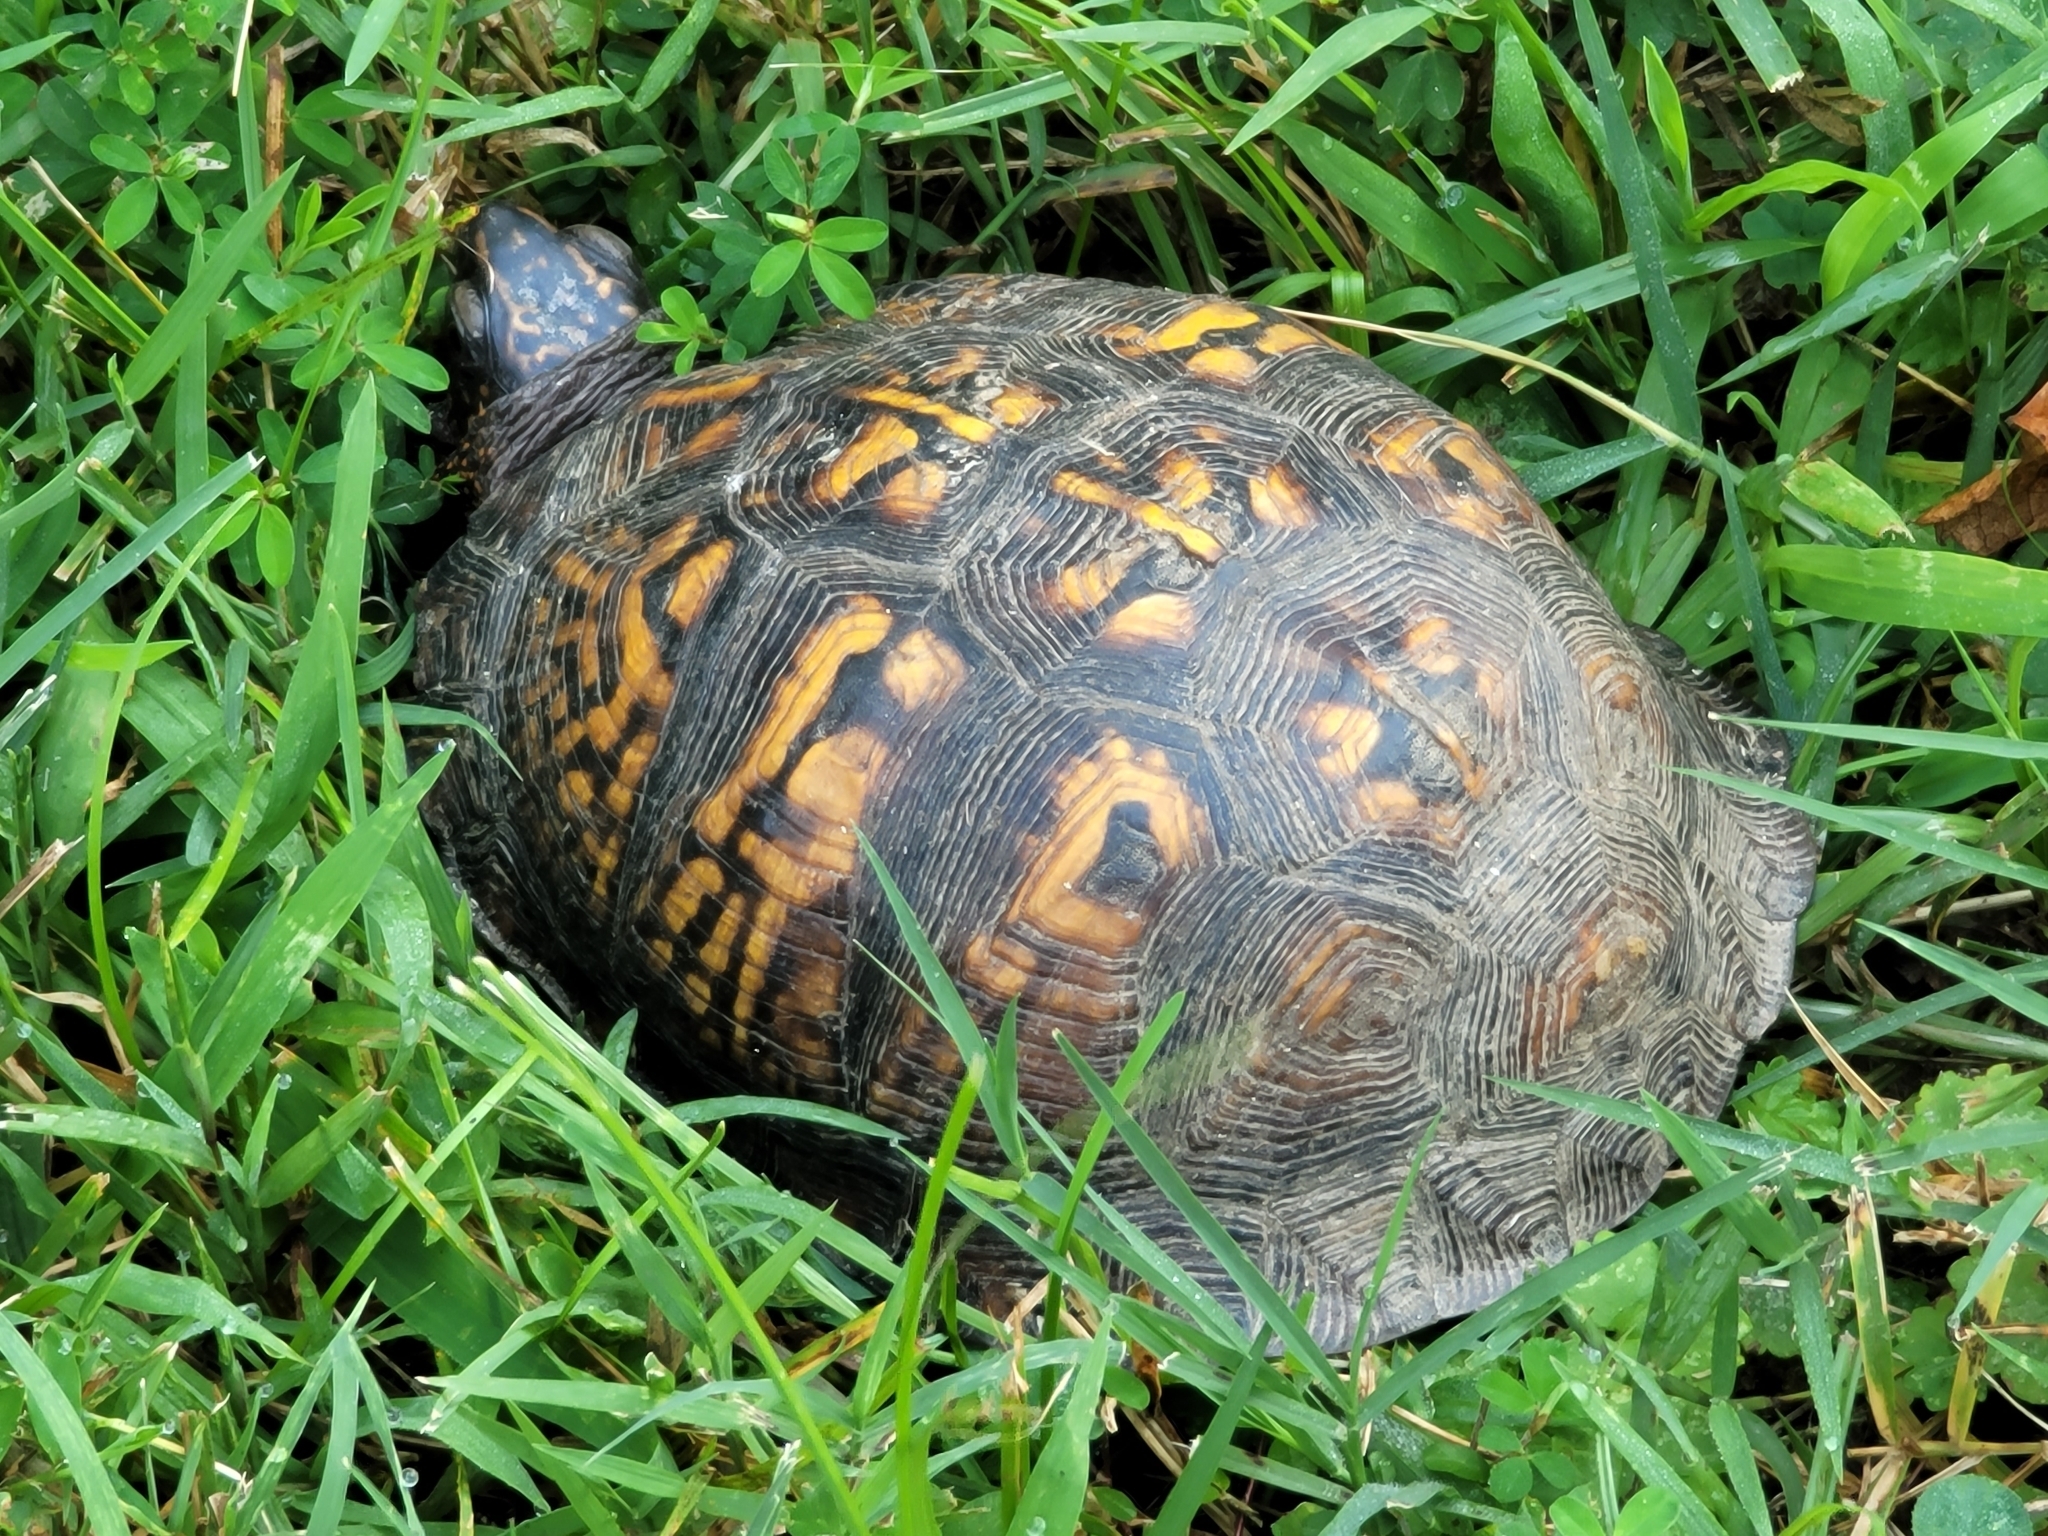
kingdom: Animalia
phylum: Chordata
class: Testudines
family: Emydidae
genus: Terrapene
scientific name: Terrapene carolina
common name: Common box turtle
